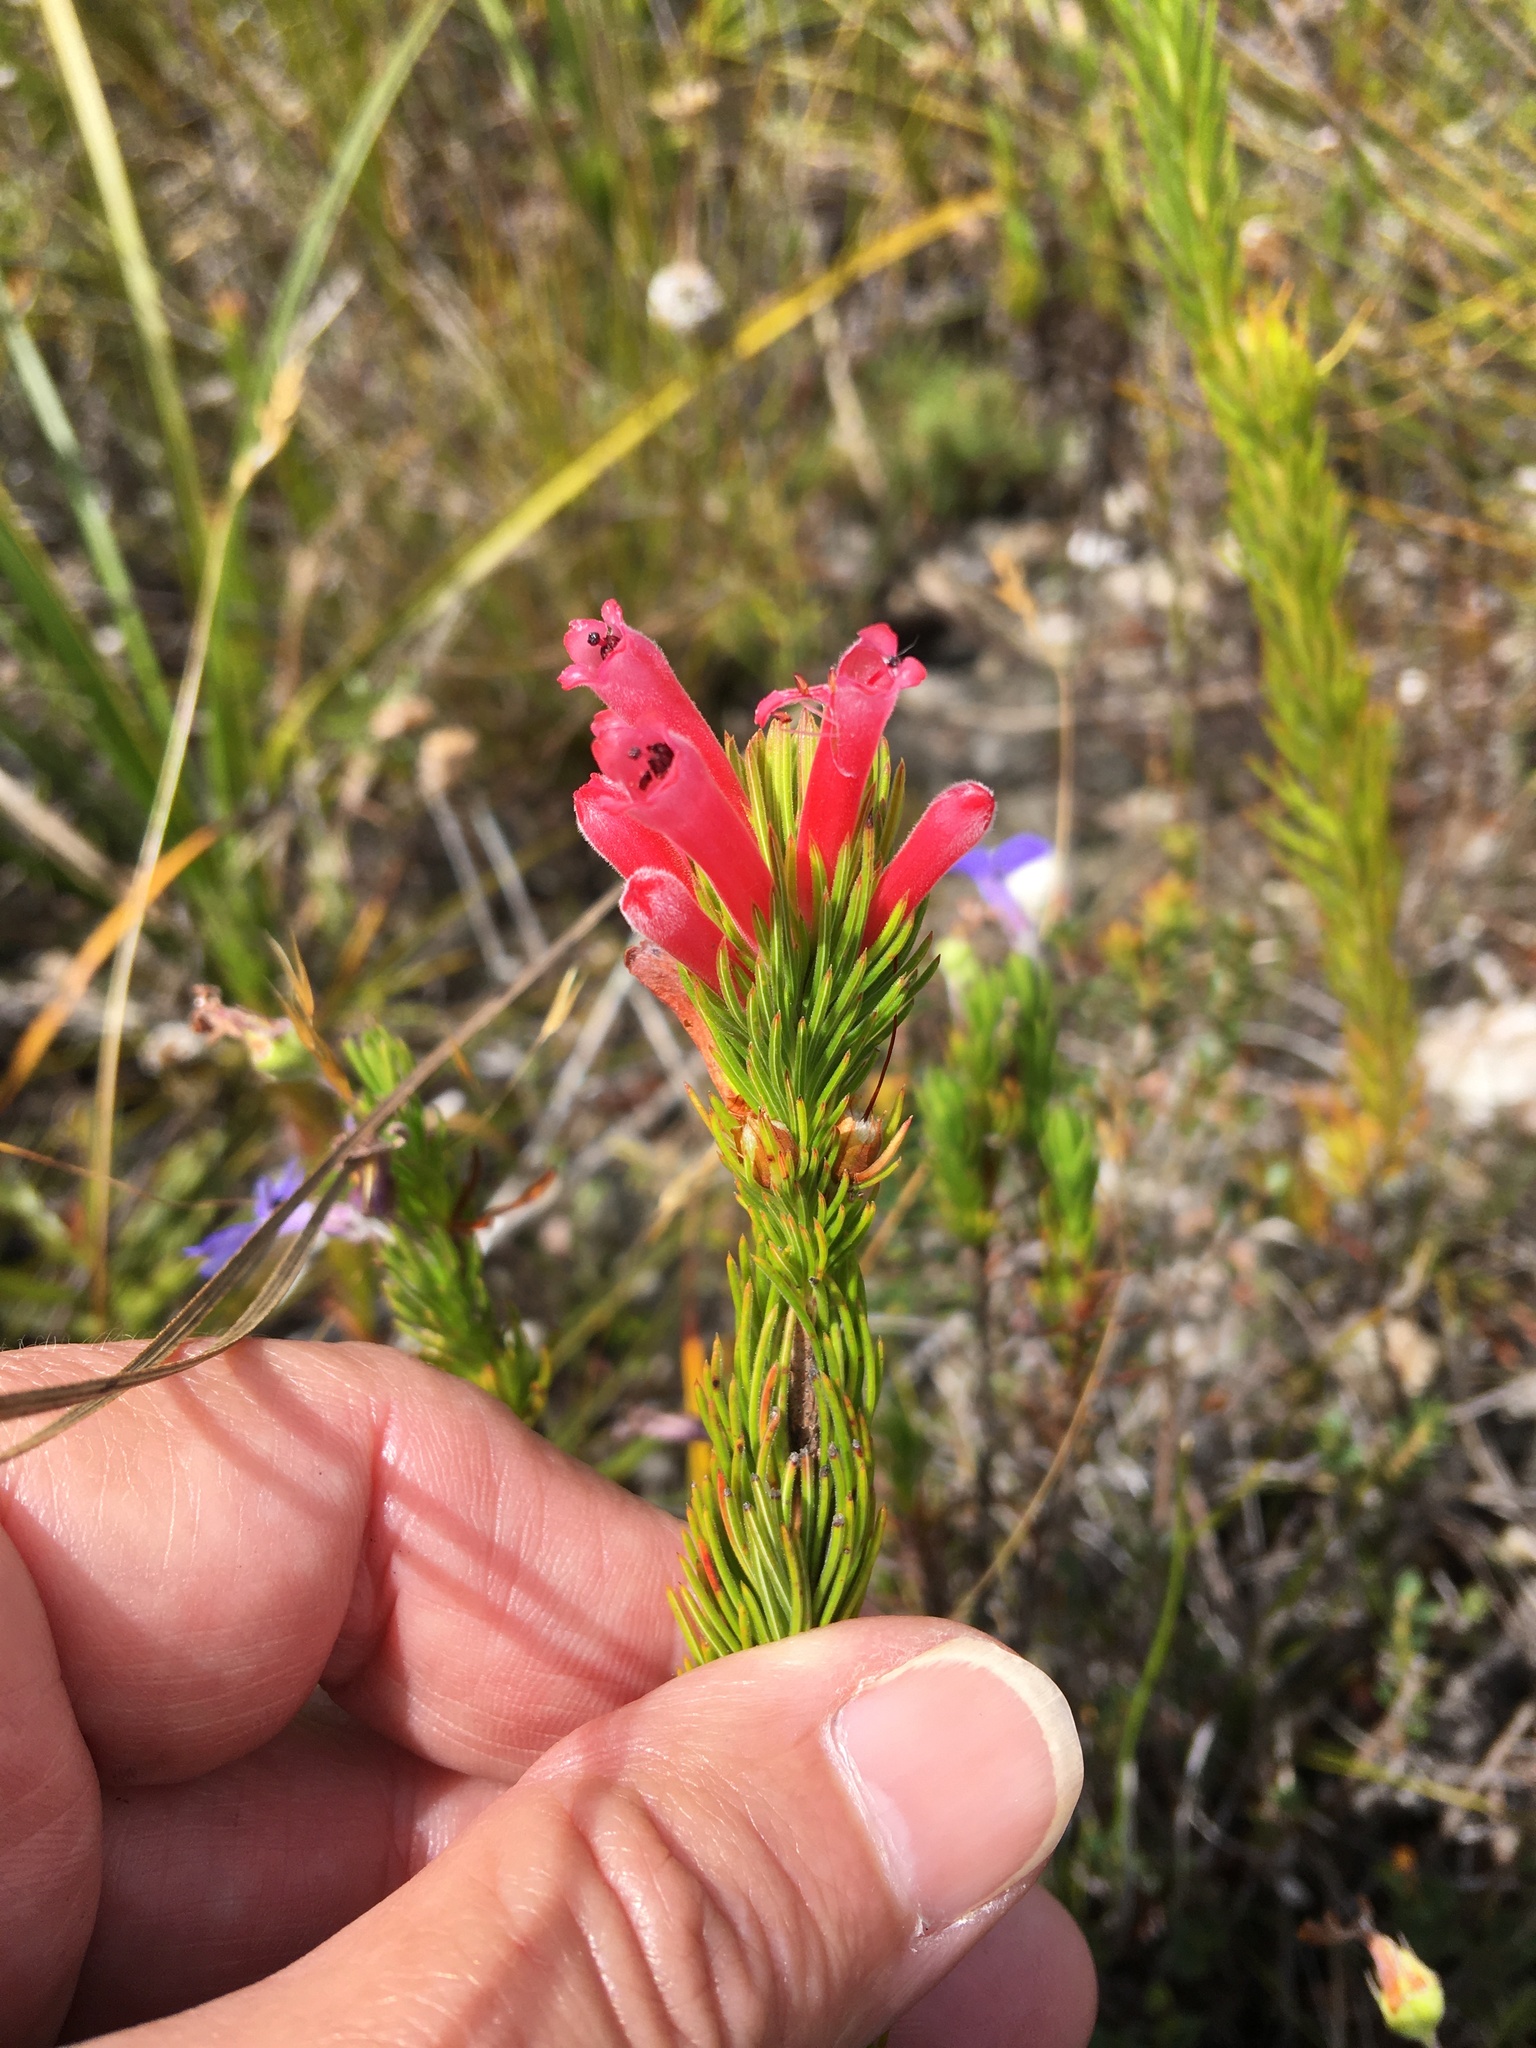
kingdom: Plantae
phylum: Tracheophyta
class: Magnoliopsida
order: Ericales
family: Ericaceae
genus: Erica
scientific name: Erica vestita
